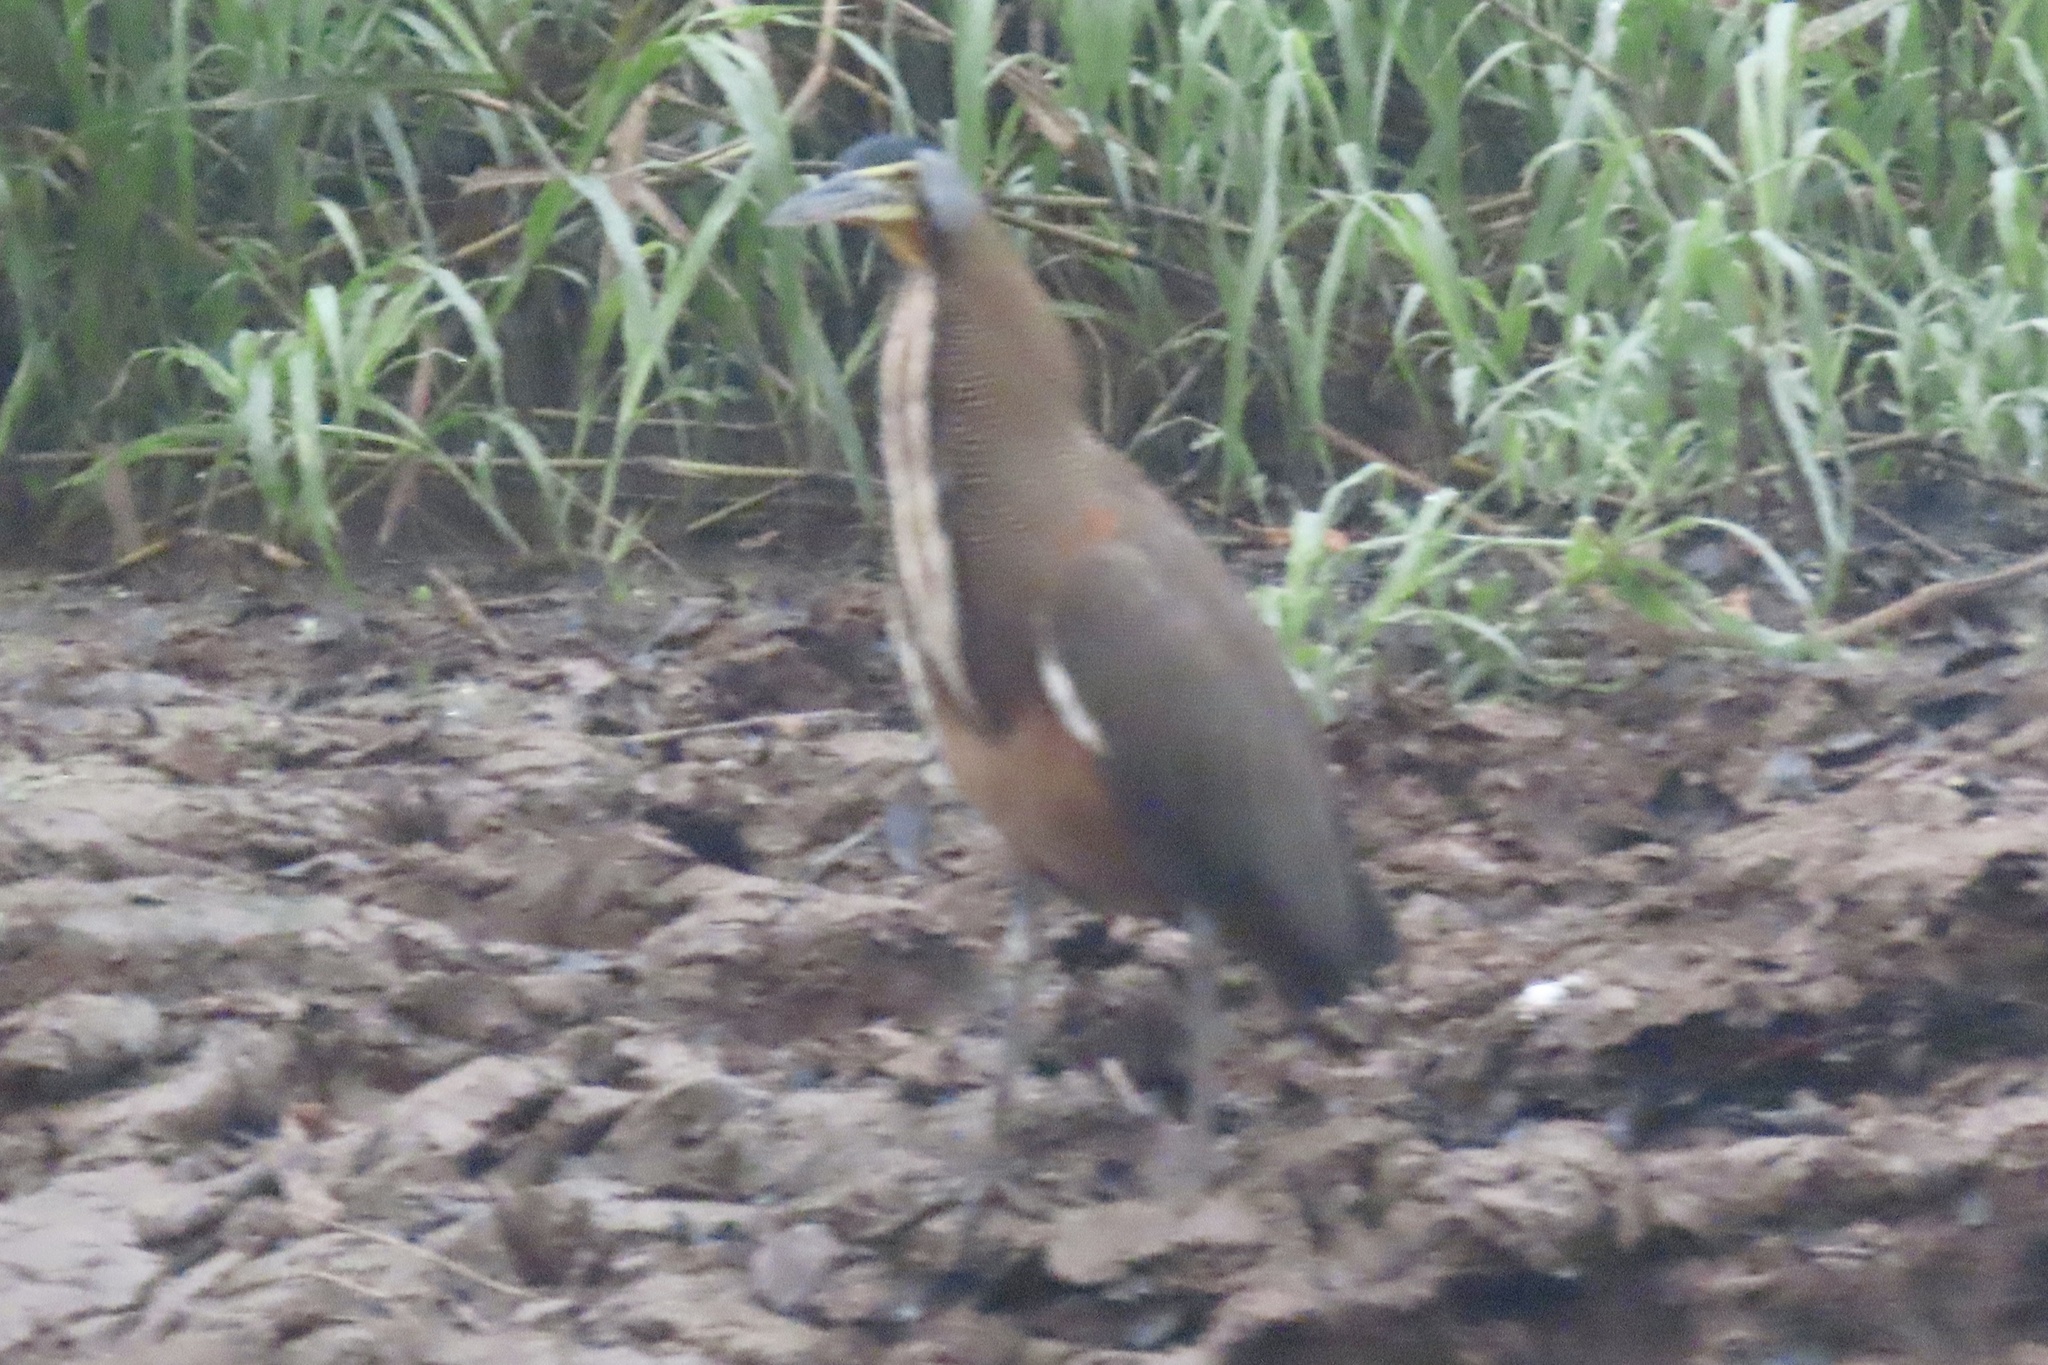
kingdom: Animalia
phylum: Chordata
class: Aves
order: Pelecaniformes
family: Ardeidae
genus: Tigrisoma
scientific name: Tigrisoma mexicanum
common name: Bare-throated tiger-heron
